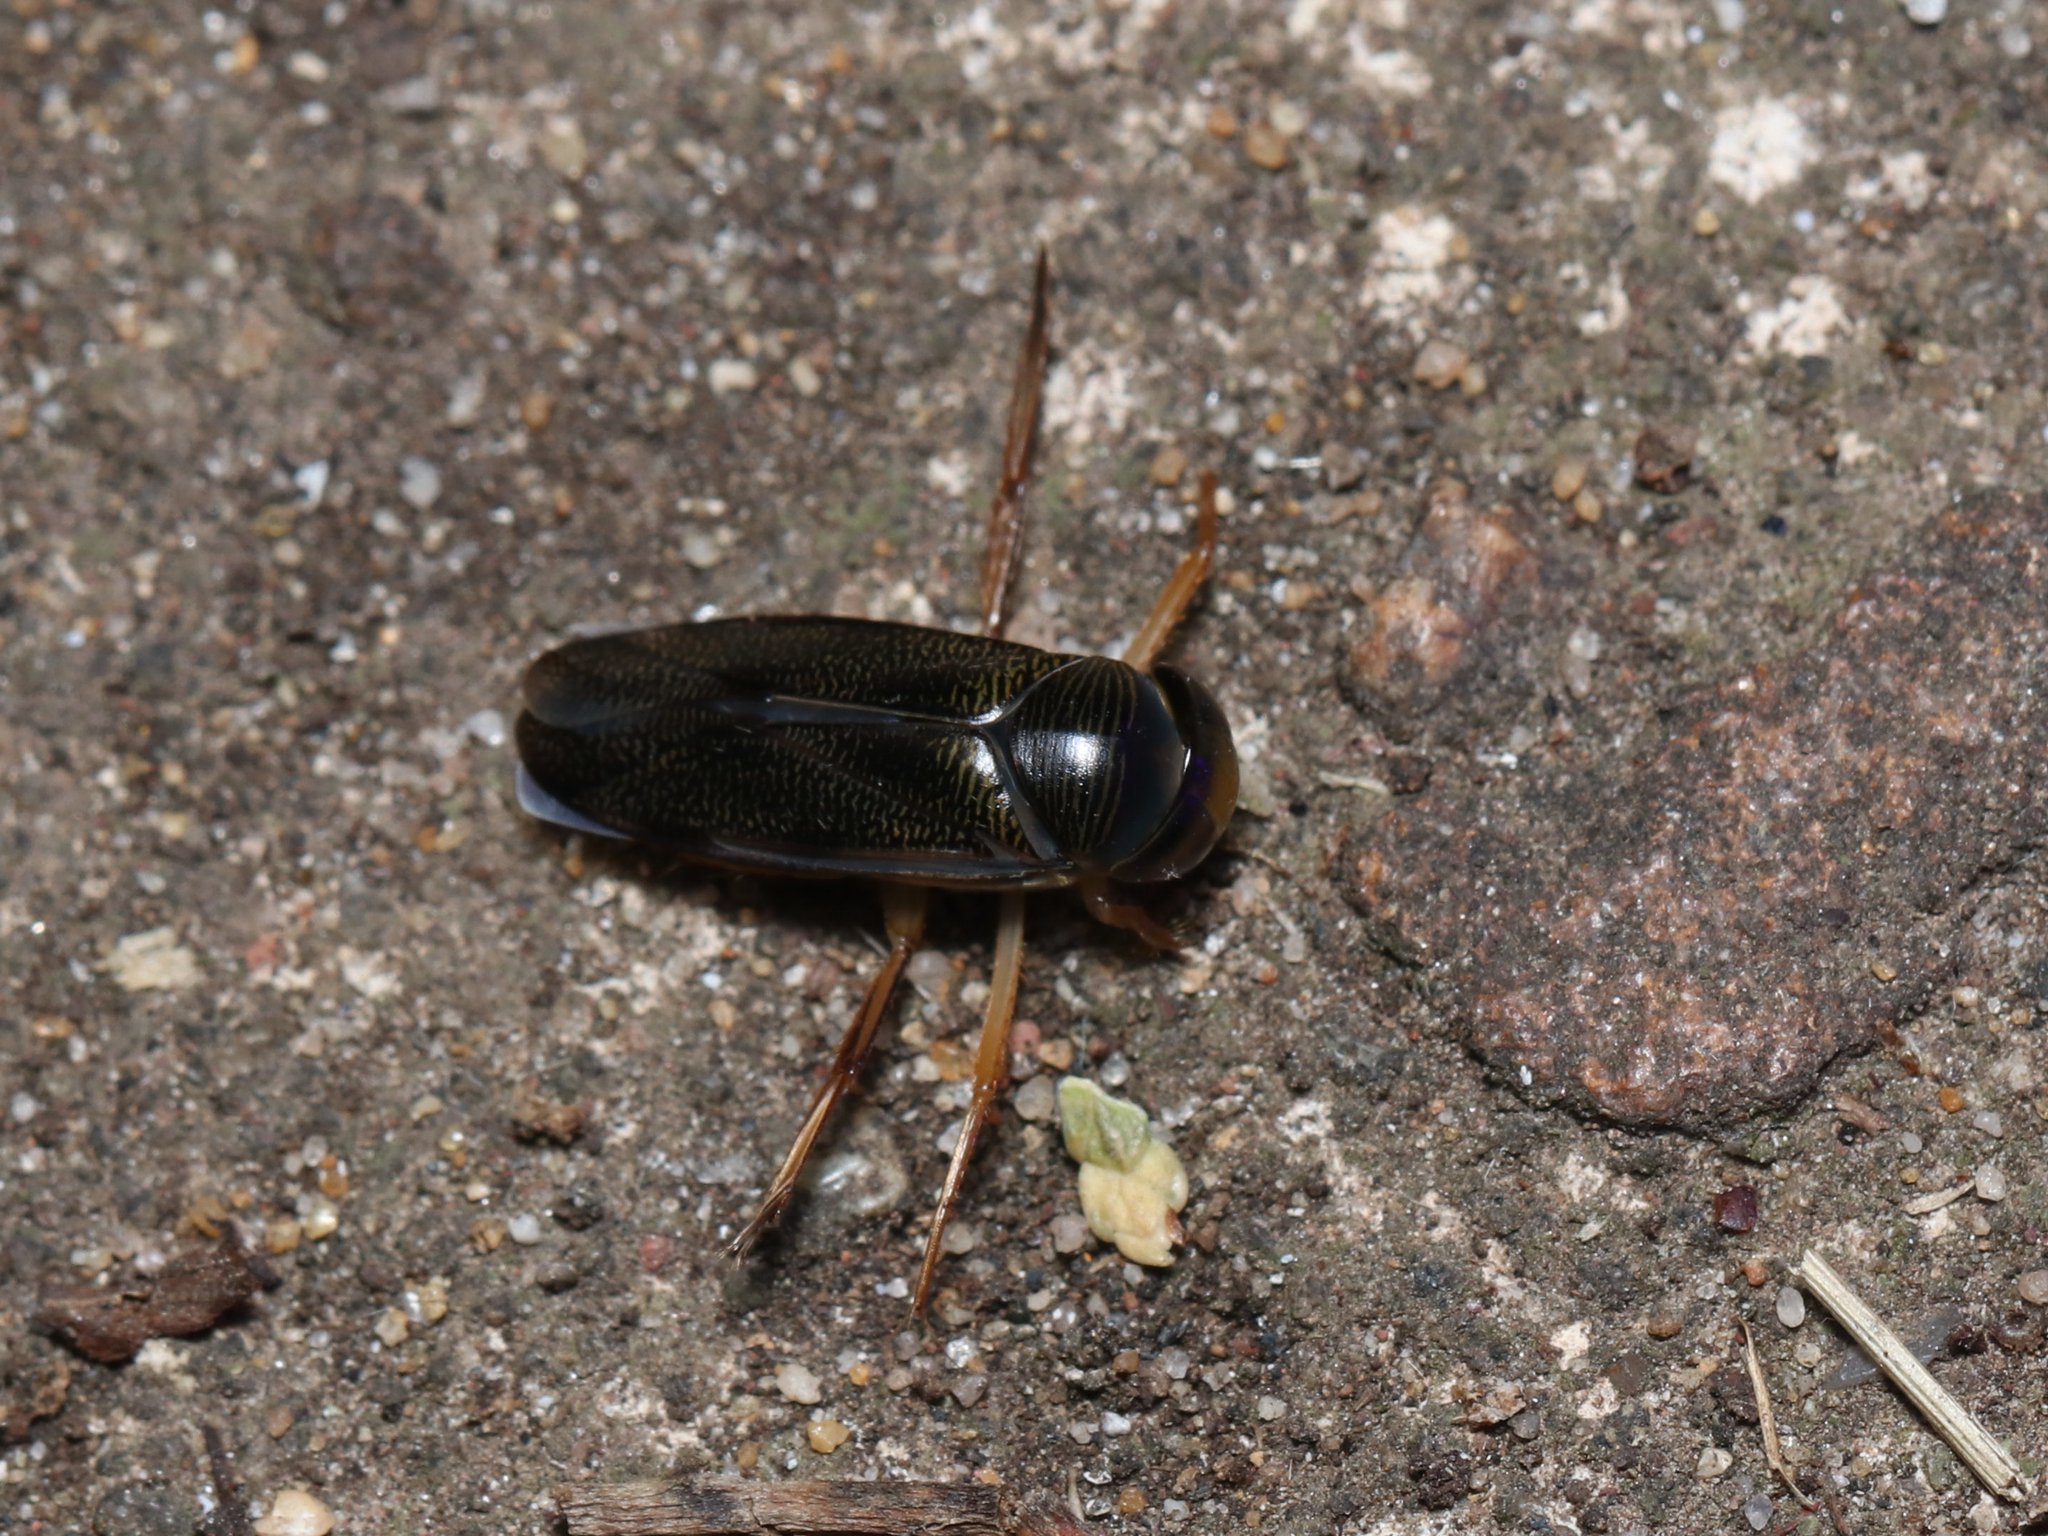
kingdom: Animalia
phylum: Arthropoda
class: Insecta
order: Hemiptera
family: Corixidae
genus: Hesperocorixa
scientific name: Hesperocorixa
